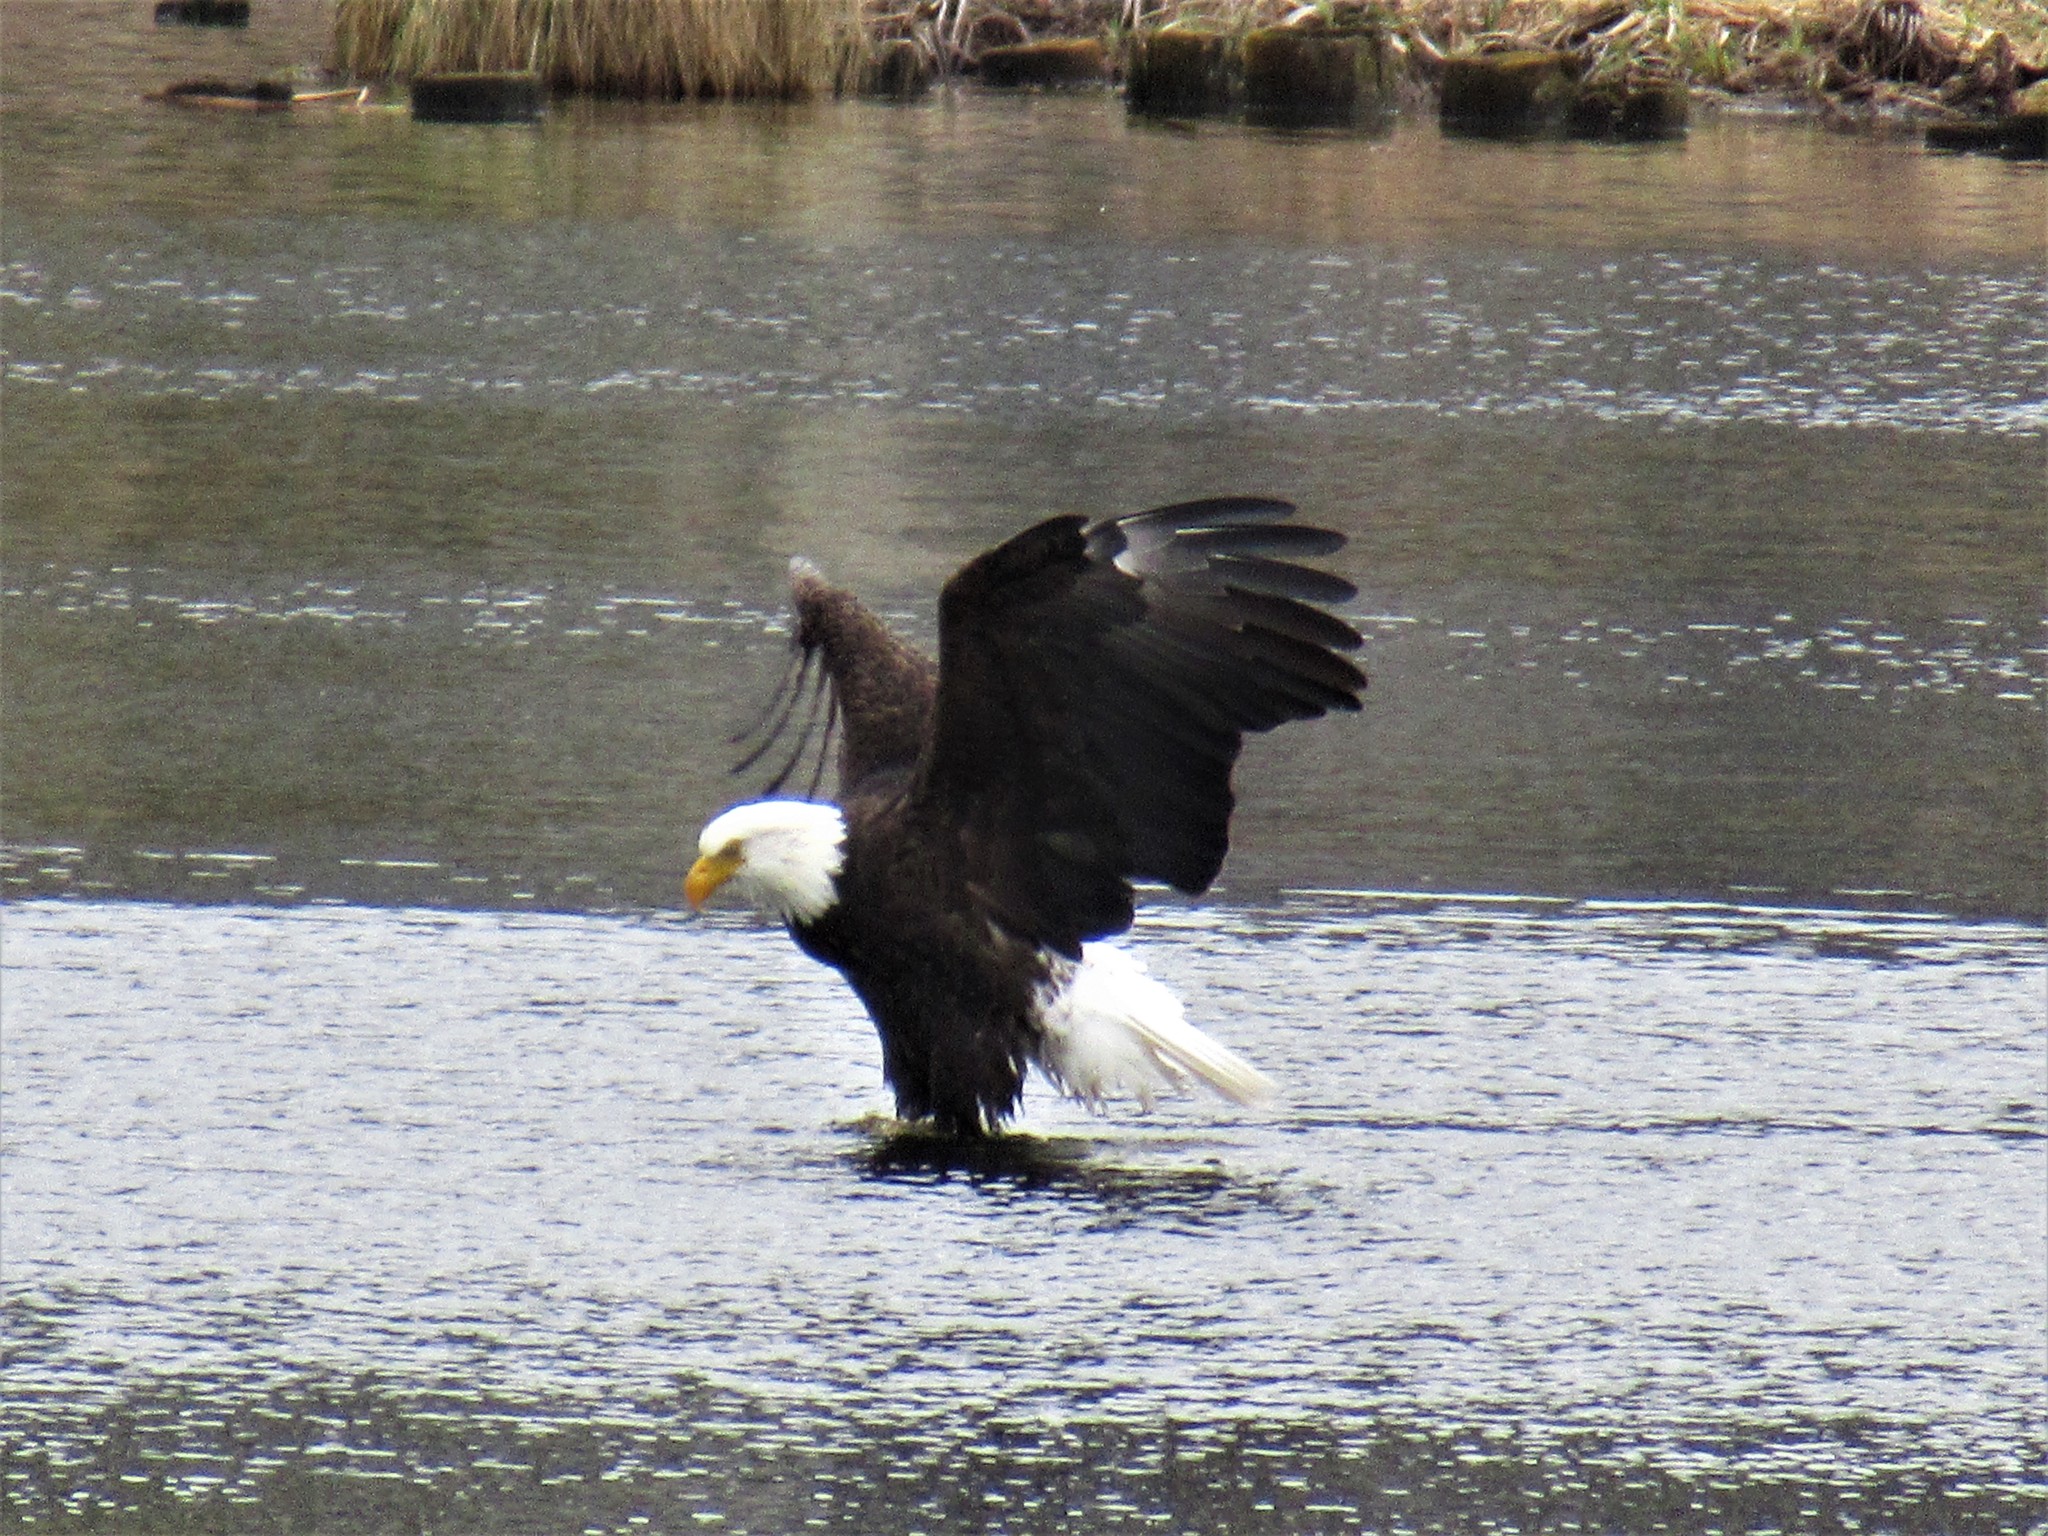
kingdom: Animalia
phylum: Chordata
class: Aves
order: Accipitriformes
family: Accipitridae
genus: Haliaeetus
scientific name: Haliaeetus leucocephalus
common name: Bald eagle
